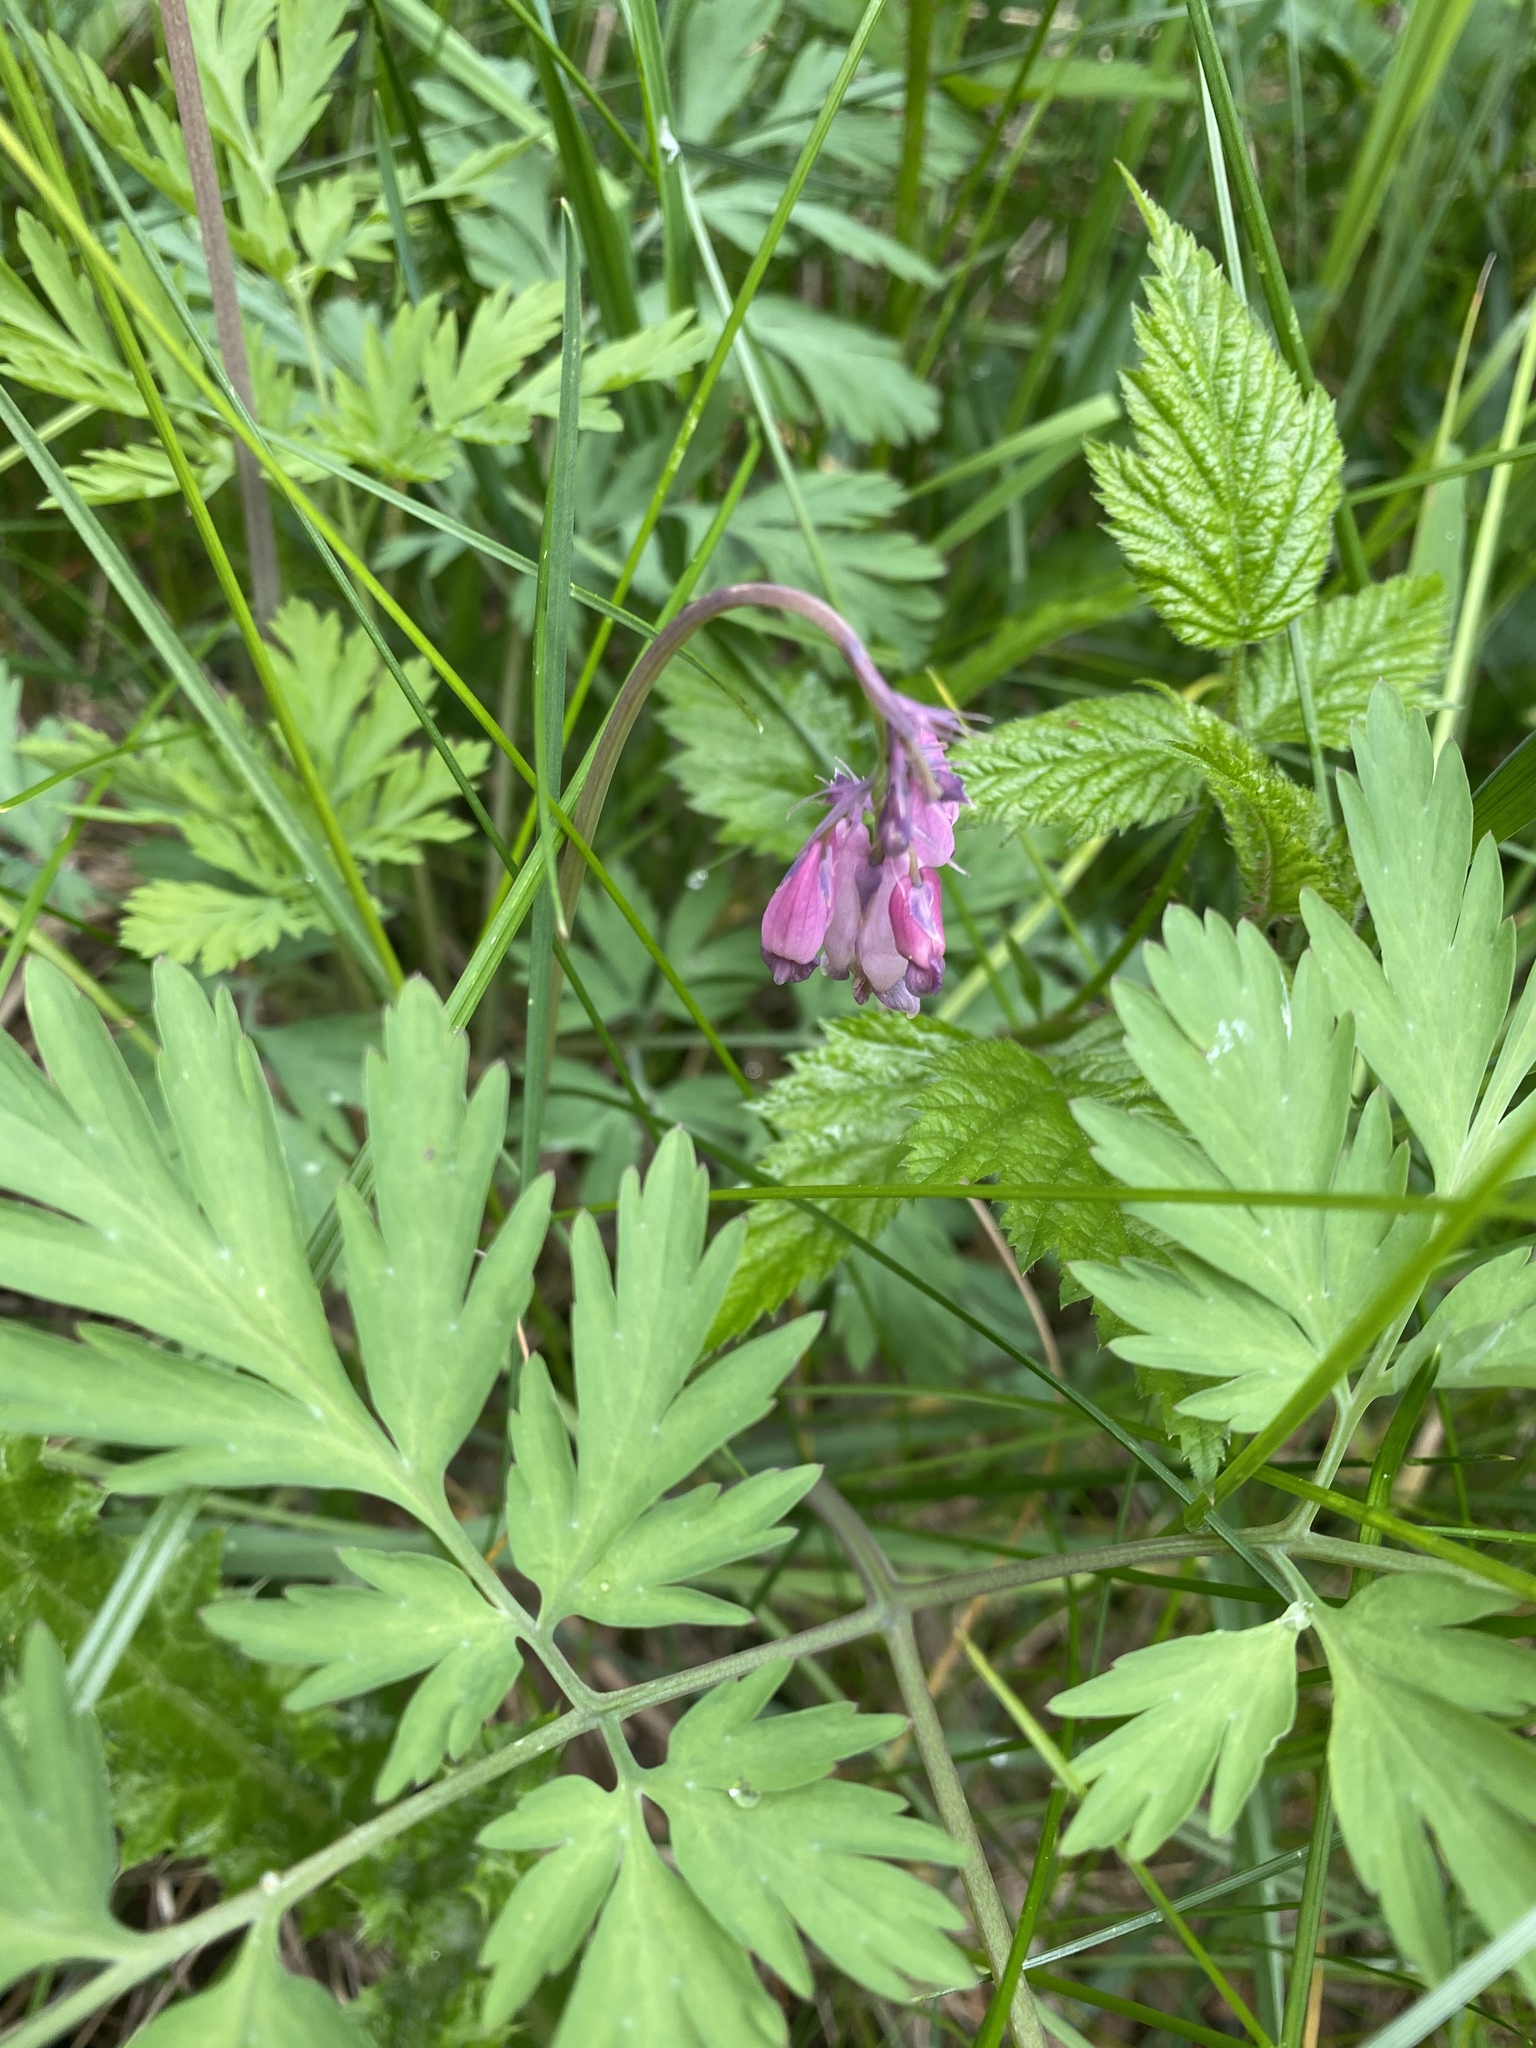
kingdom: Plantae
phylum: Tracheophyta
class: Magnoliopsida
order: Ranunculales
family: Papaveraceae
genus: Dicentra
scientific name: Dicentra formosa
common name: Bleeding-heart
